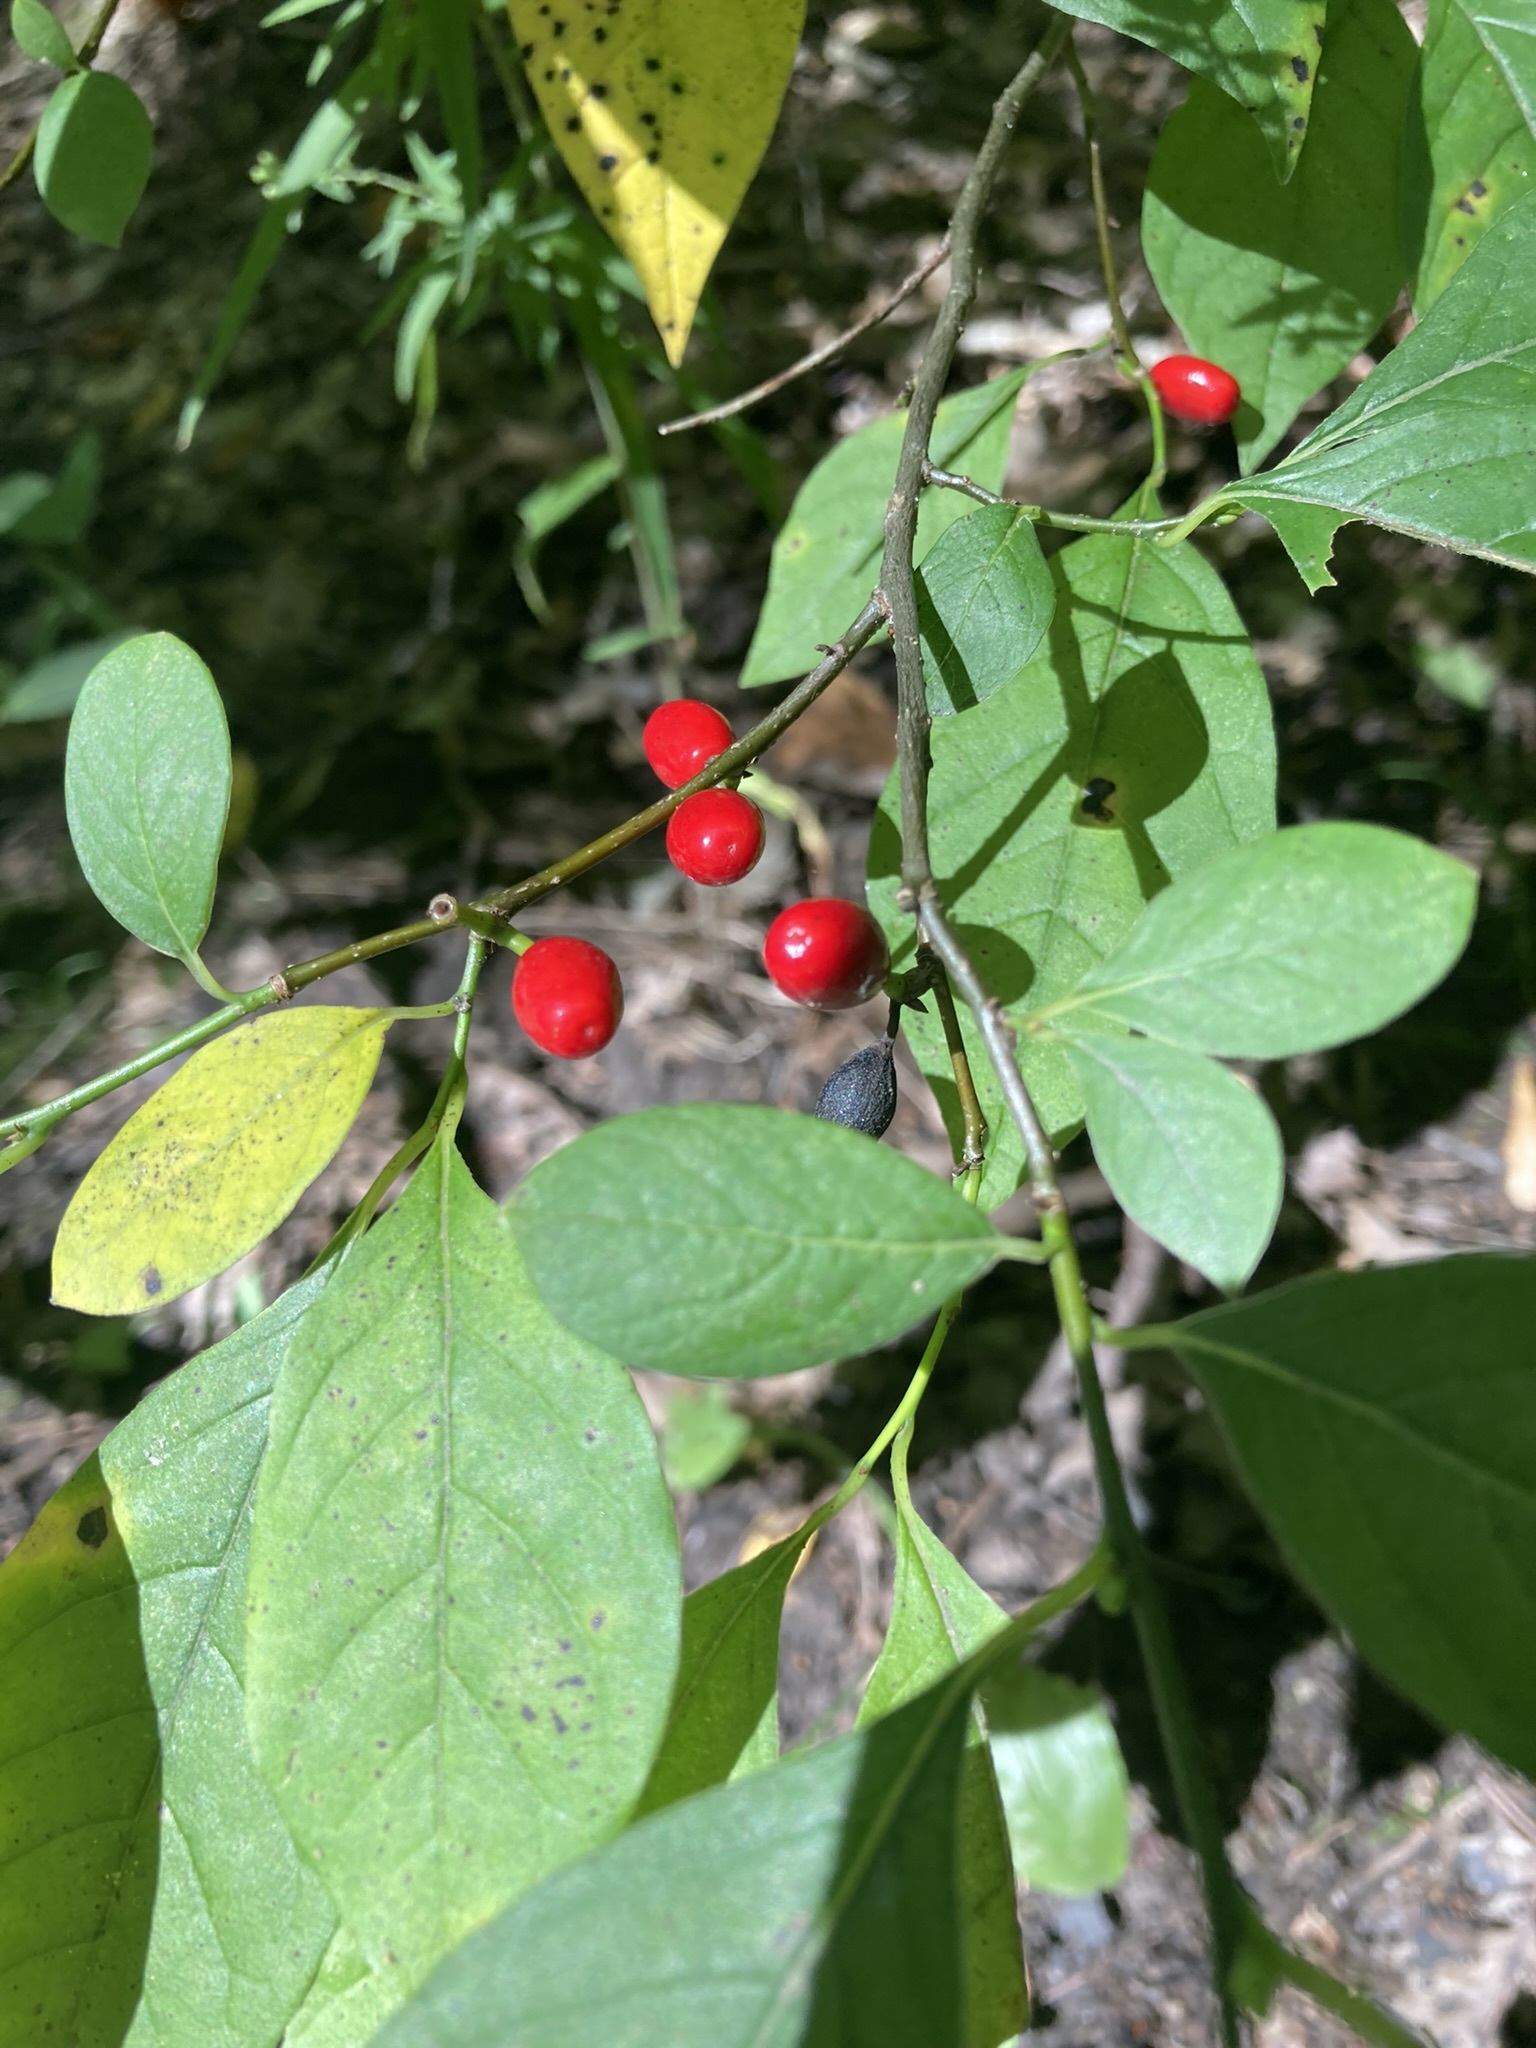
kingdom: Plantae
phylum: Tracheophyta
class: Magnoliopsida
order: Laurales
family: Lauraceae
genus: Lindera
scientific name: Lindera benzoin
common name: Spicebush
